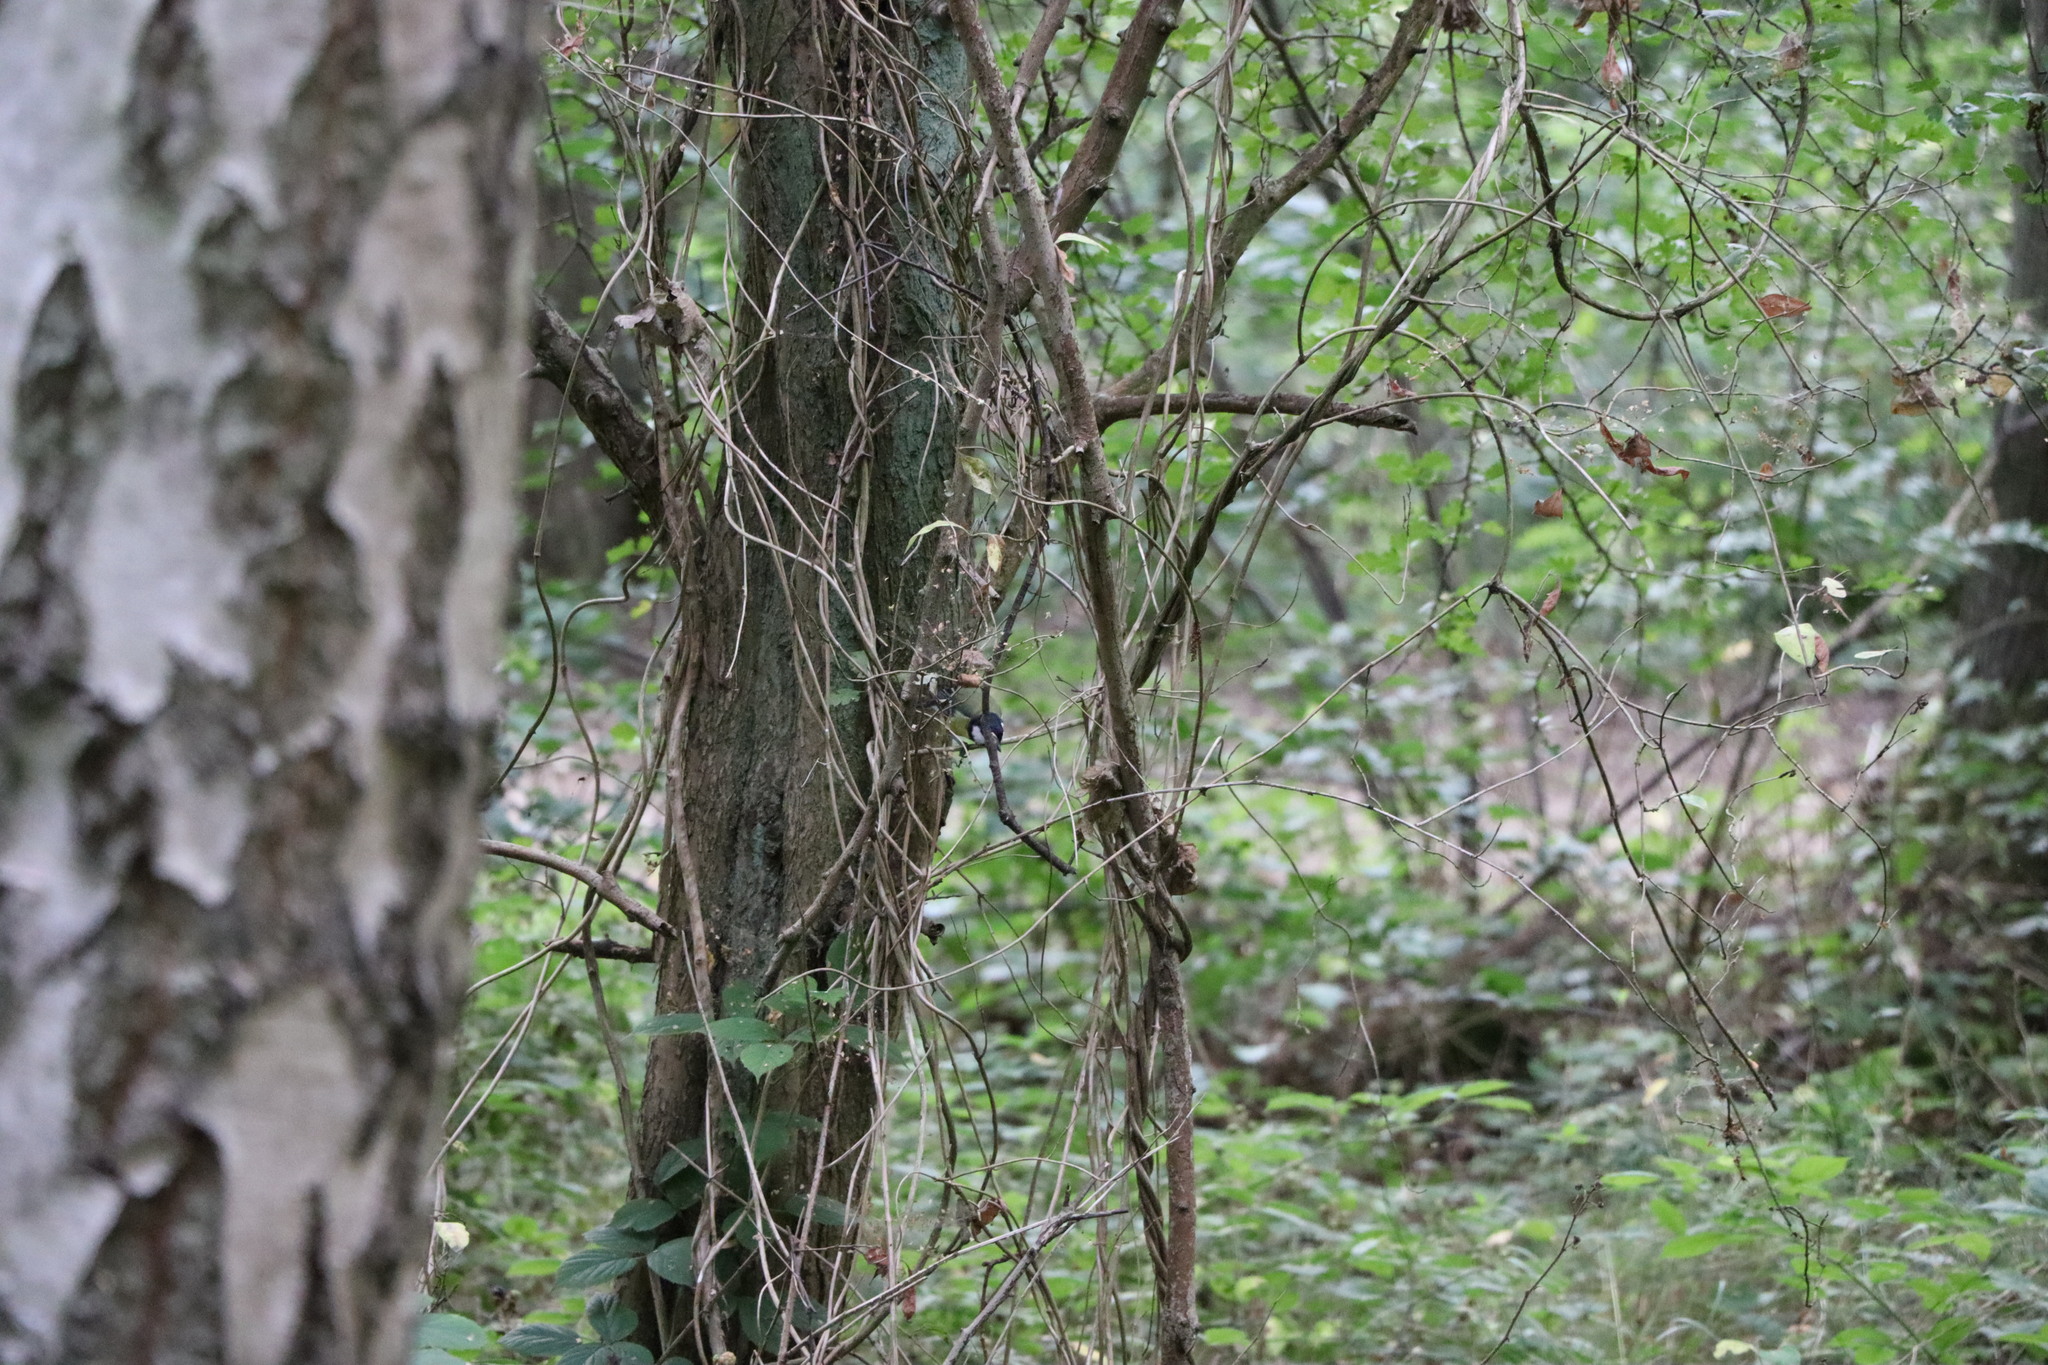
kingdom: Animalia
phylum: Chordata
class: Aves
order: Passeriformes
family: Paridae
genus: Parus
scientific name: Parus major
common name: Great tit
